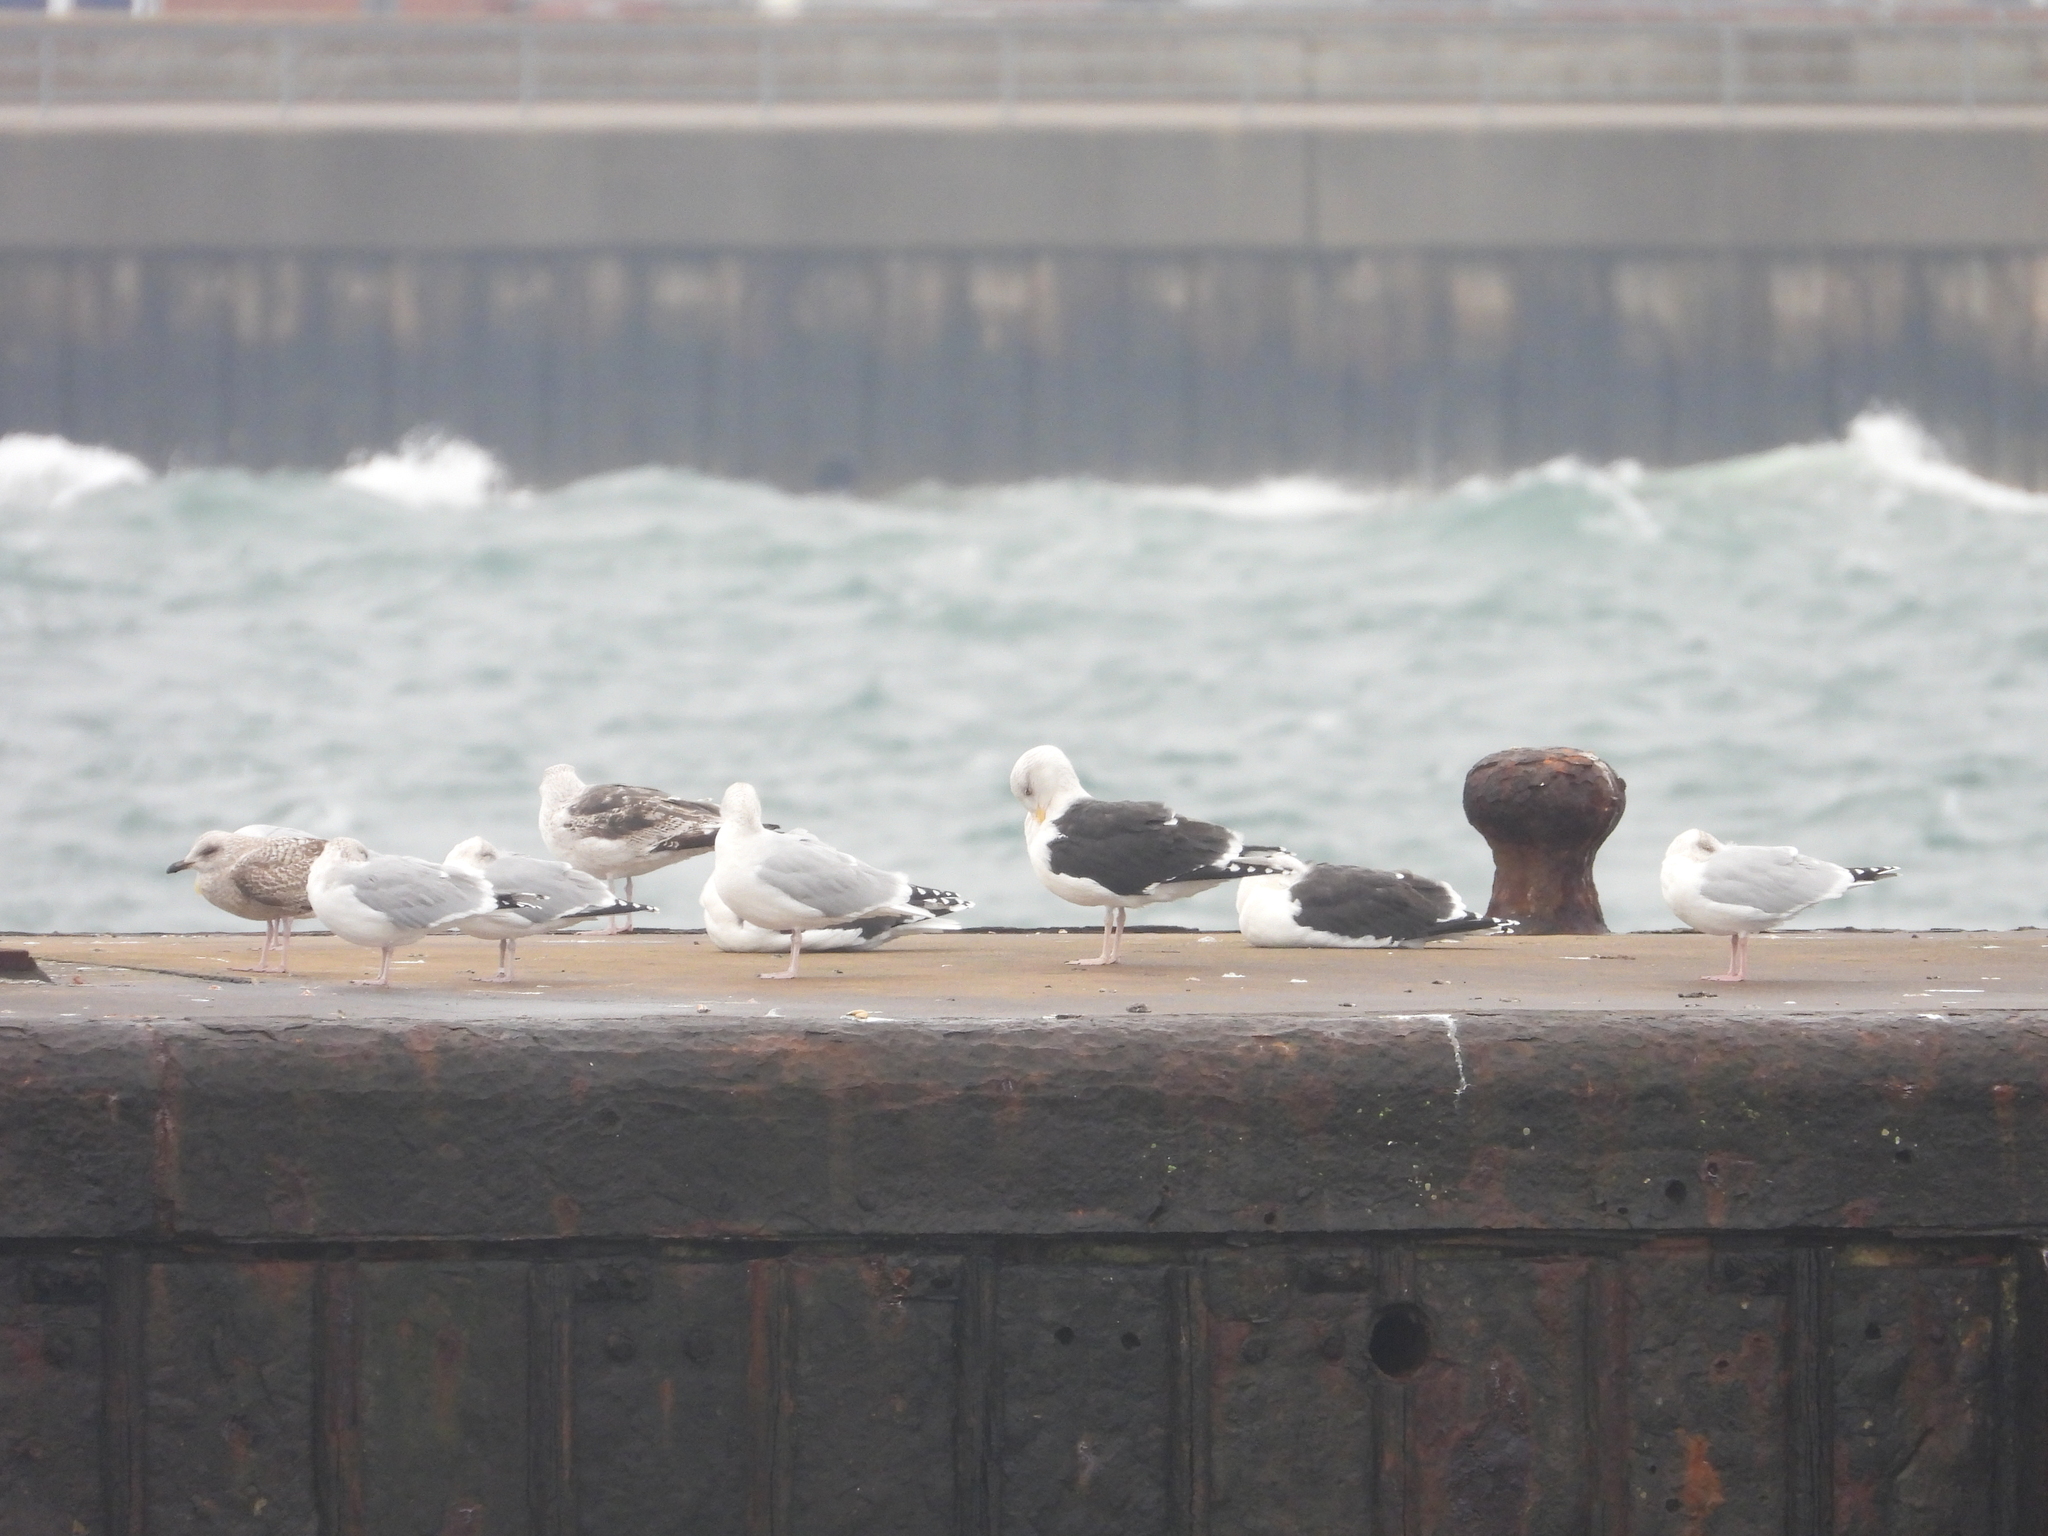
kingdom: Animalia
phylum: Chordata
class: Aves
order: Charadriiformes
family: Laridae
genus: Larus
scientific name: Larus argentatus
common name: Herring gull
